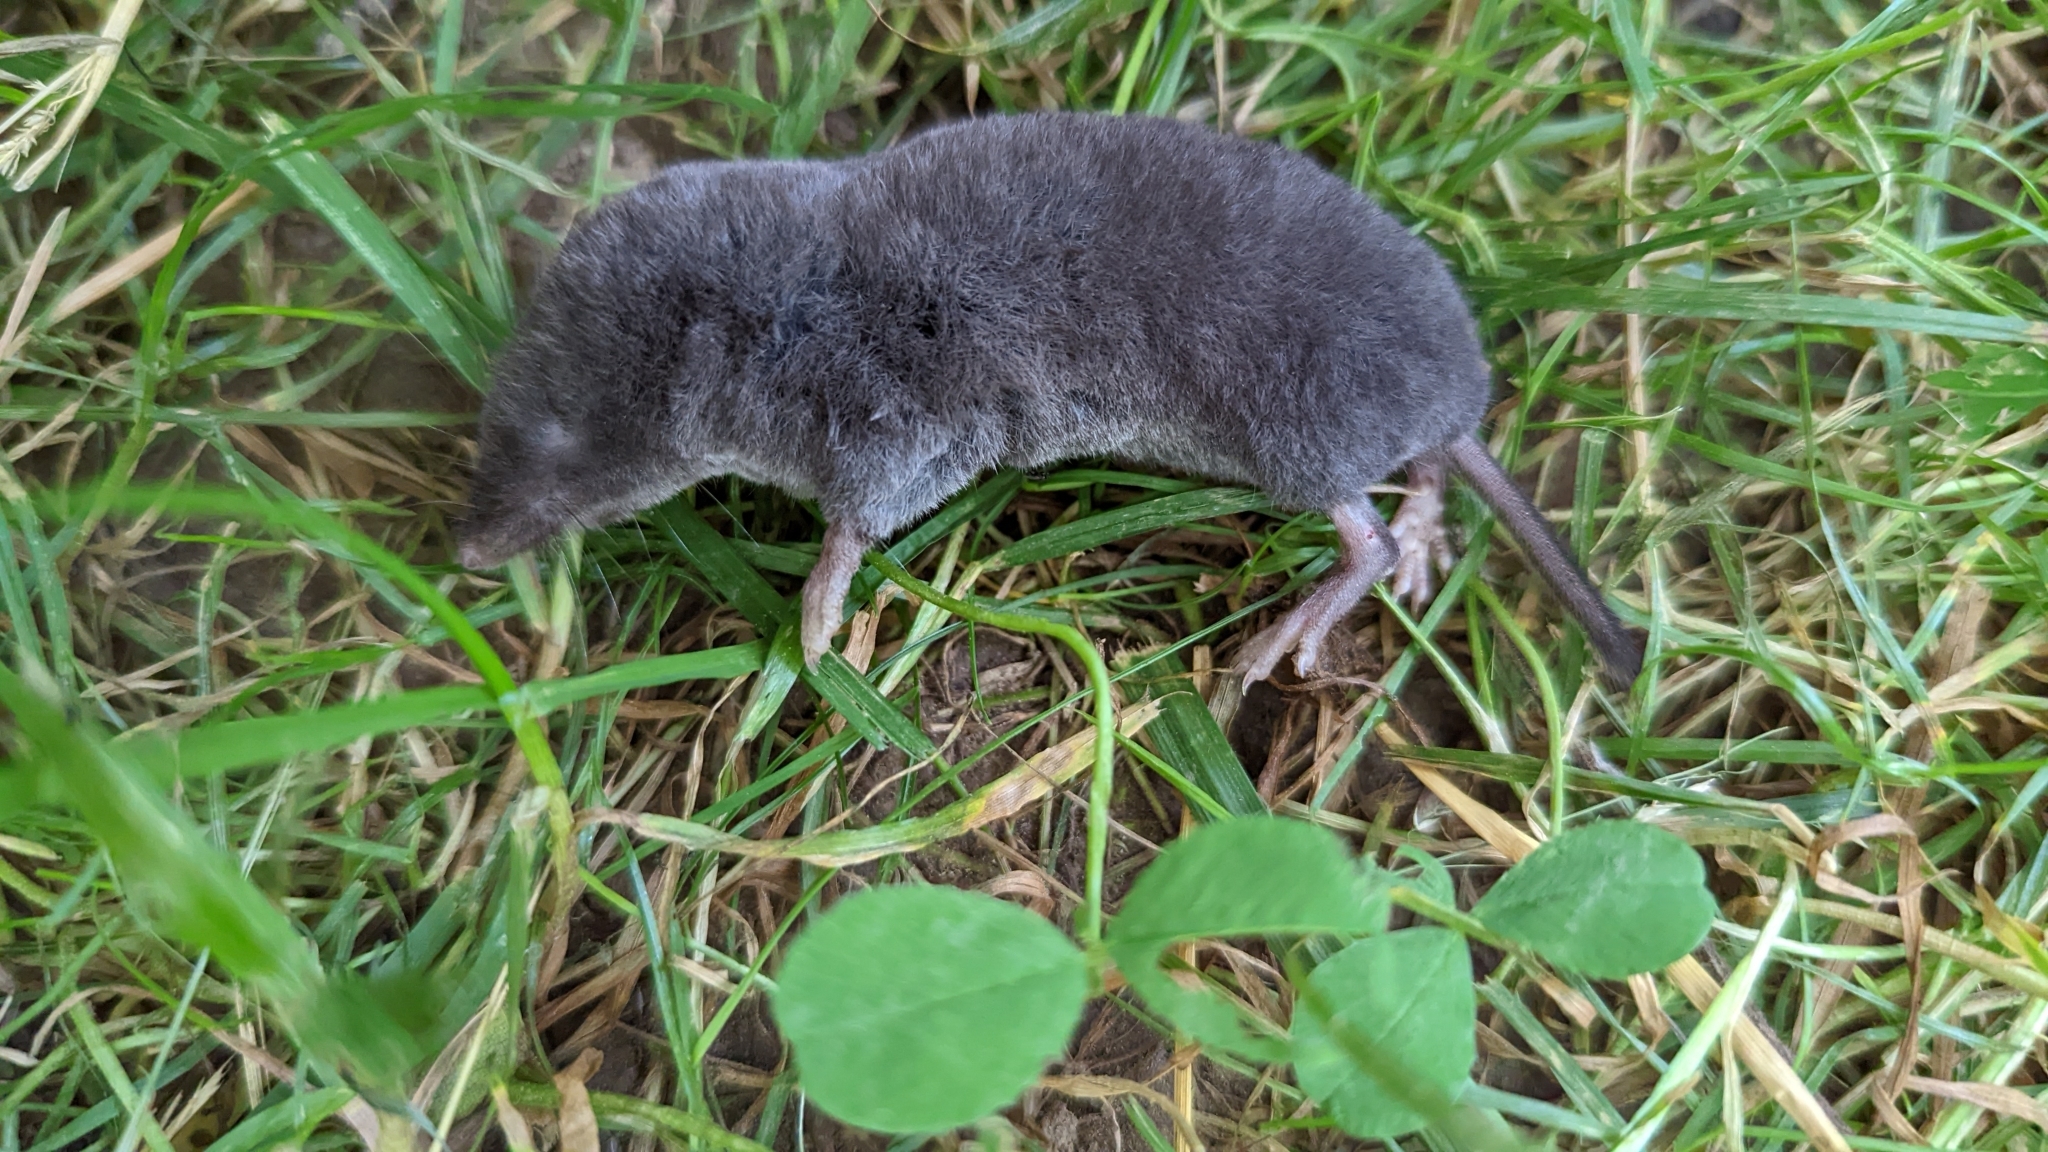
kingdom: Animalia
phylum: Chordata
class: Mammalia
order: Soricomorpha
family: Soricidae
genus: Blarina
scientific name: Blarina brevicauda
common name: Northern short-tailed shrew
